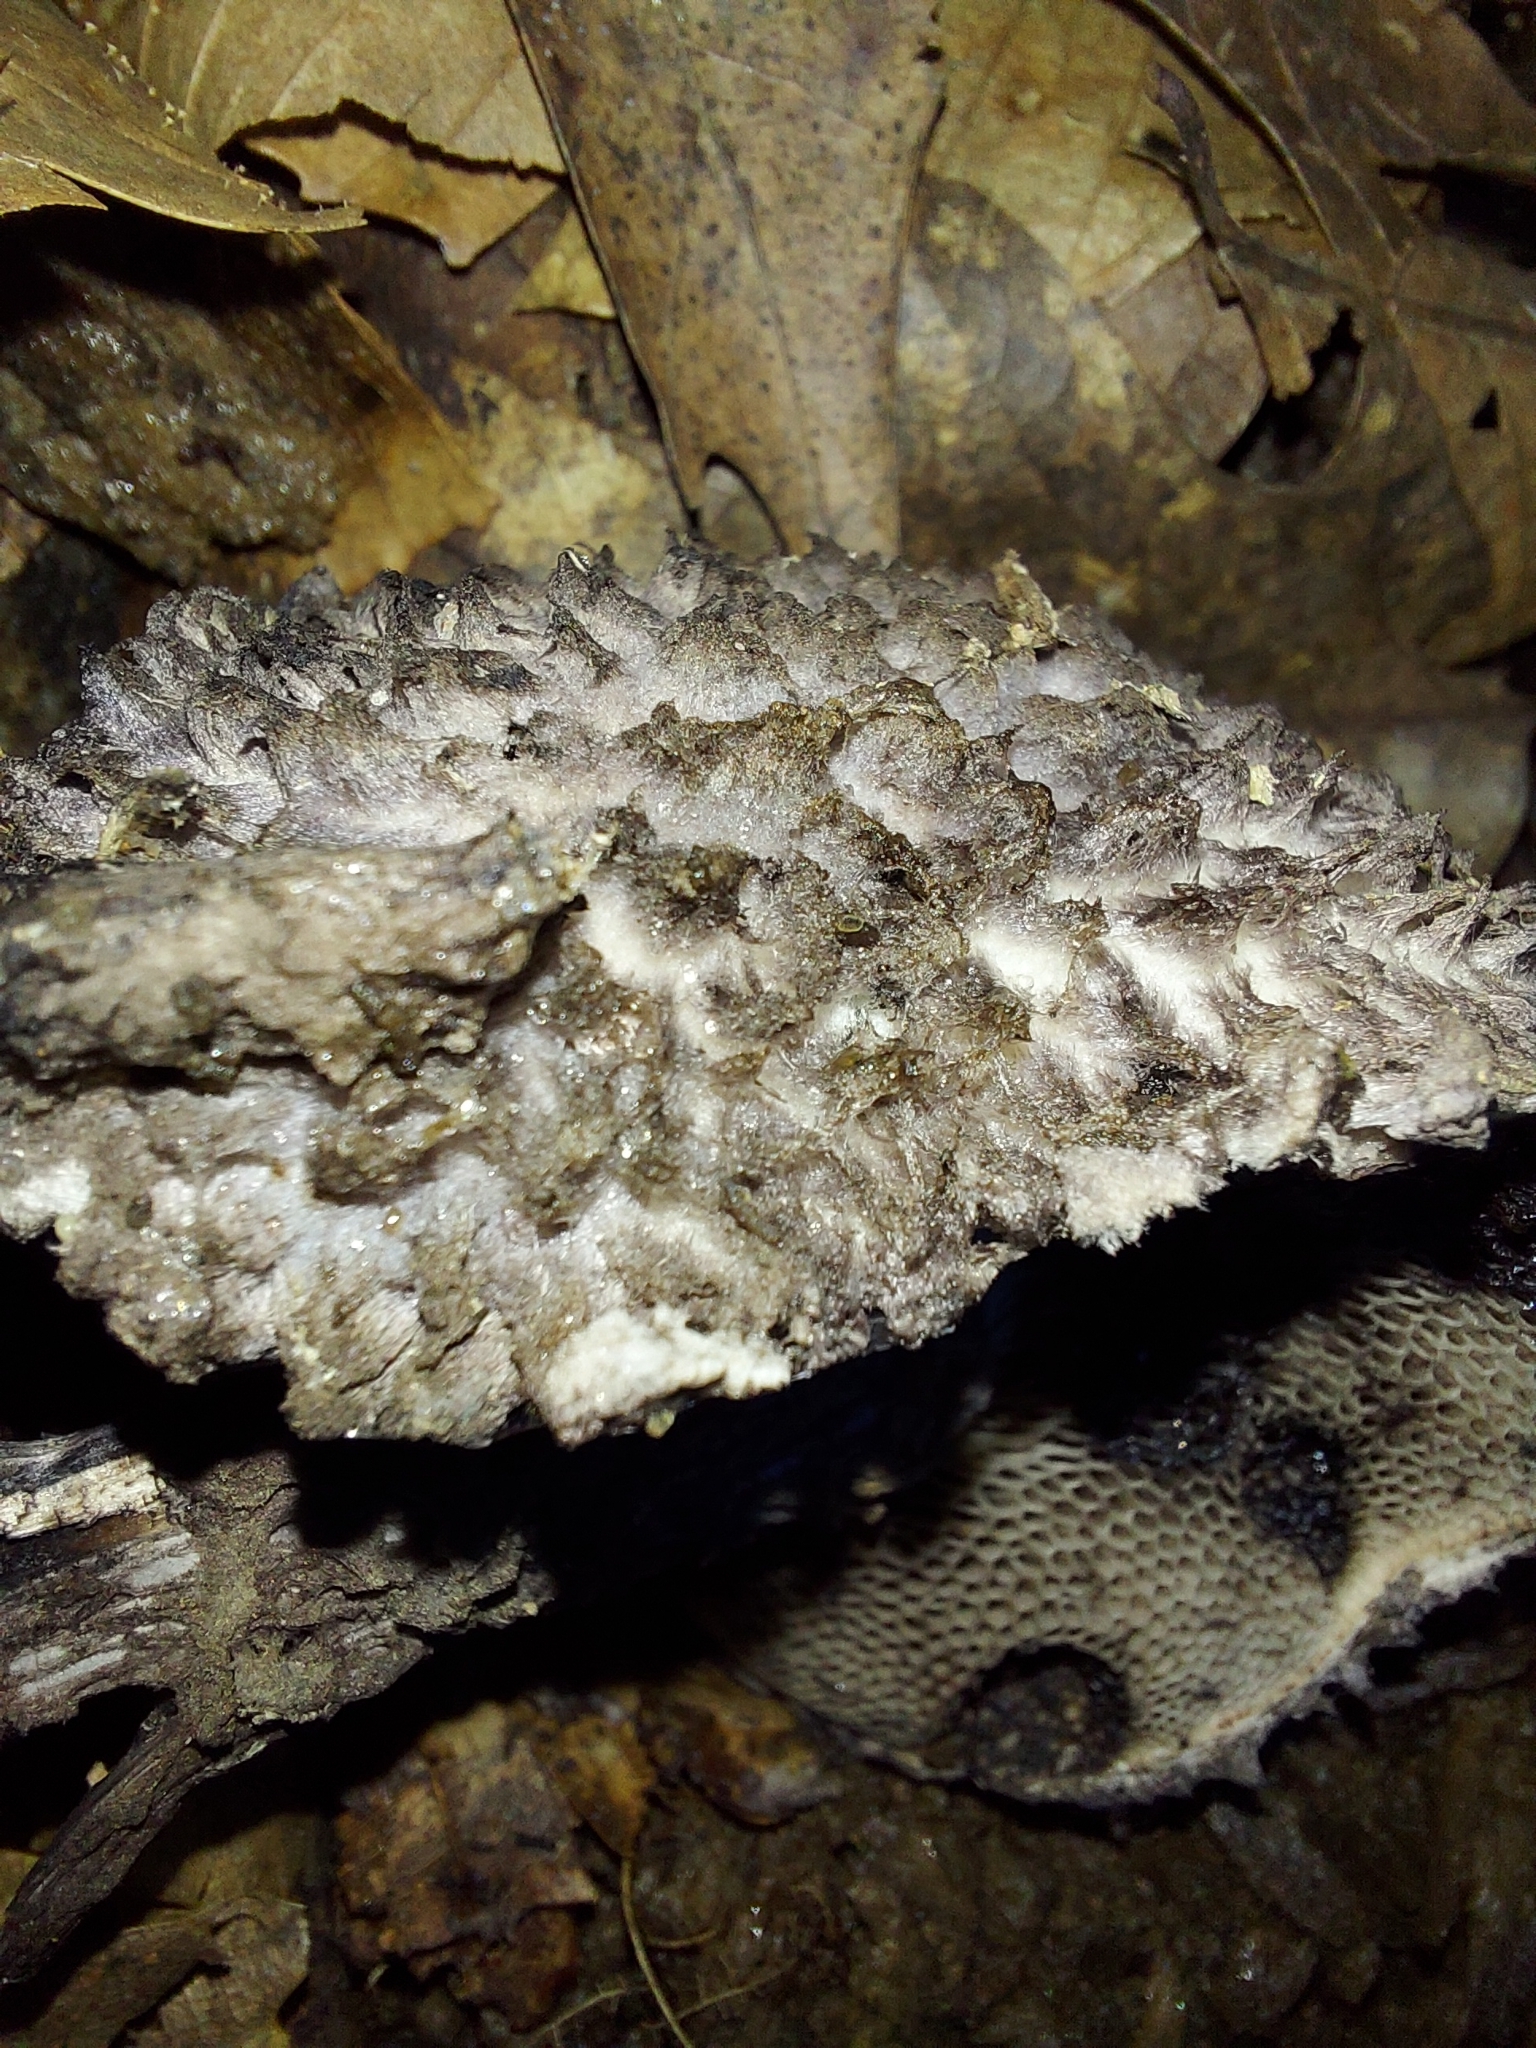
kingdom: Fungi
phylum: Basidiomycota
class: Agaricomycetes
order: Boletales
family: Boletaceae
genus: Strobilomyces
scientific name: Strobilomyces strobilaceus
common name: Old man of the woods
